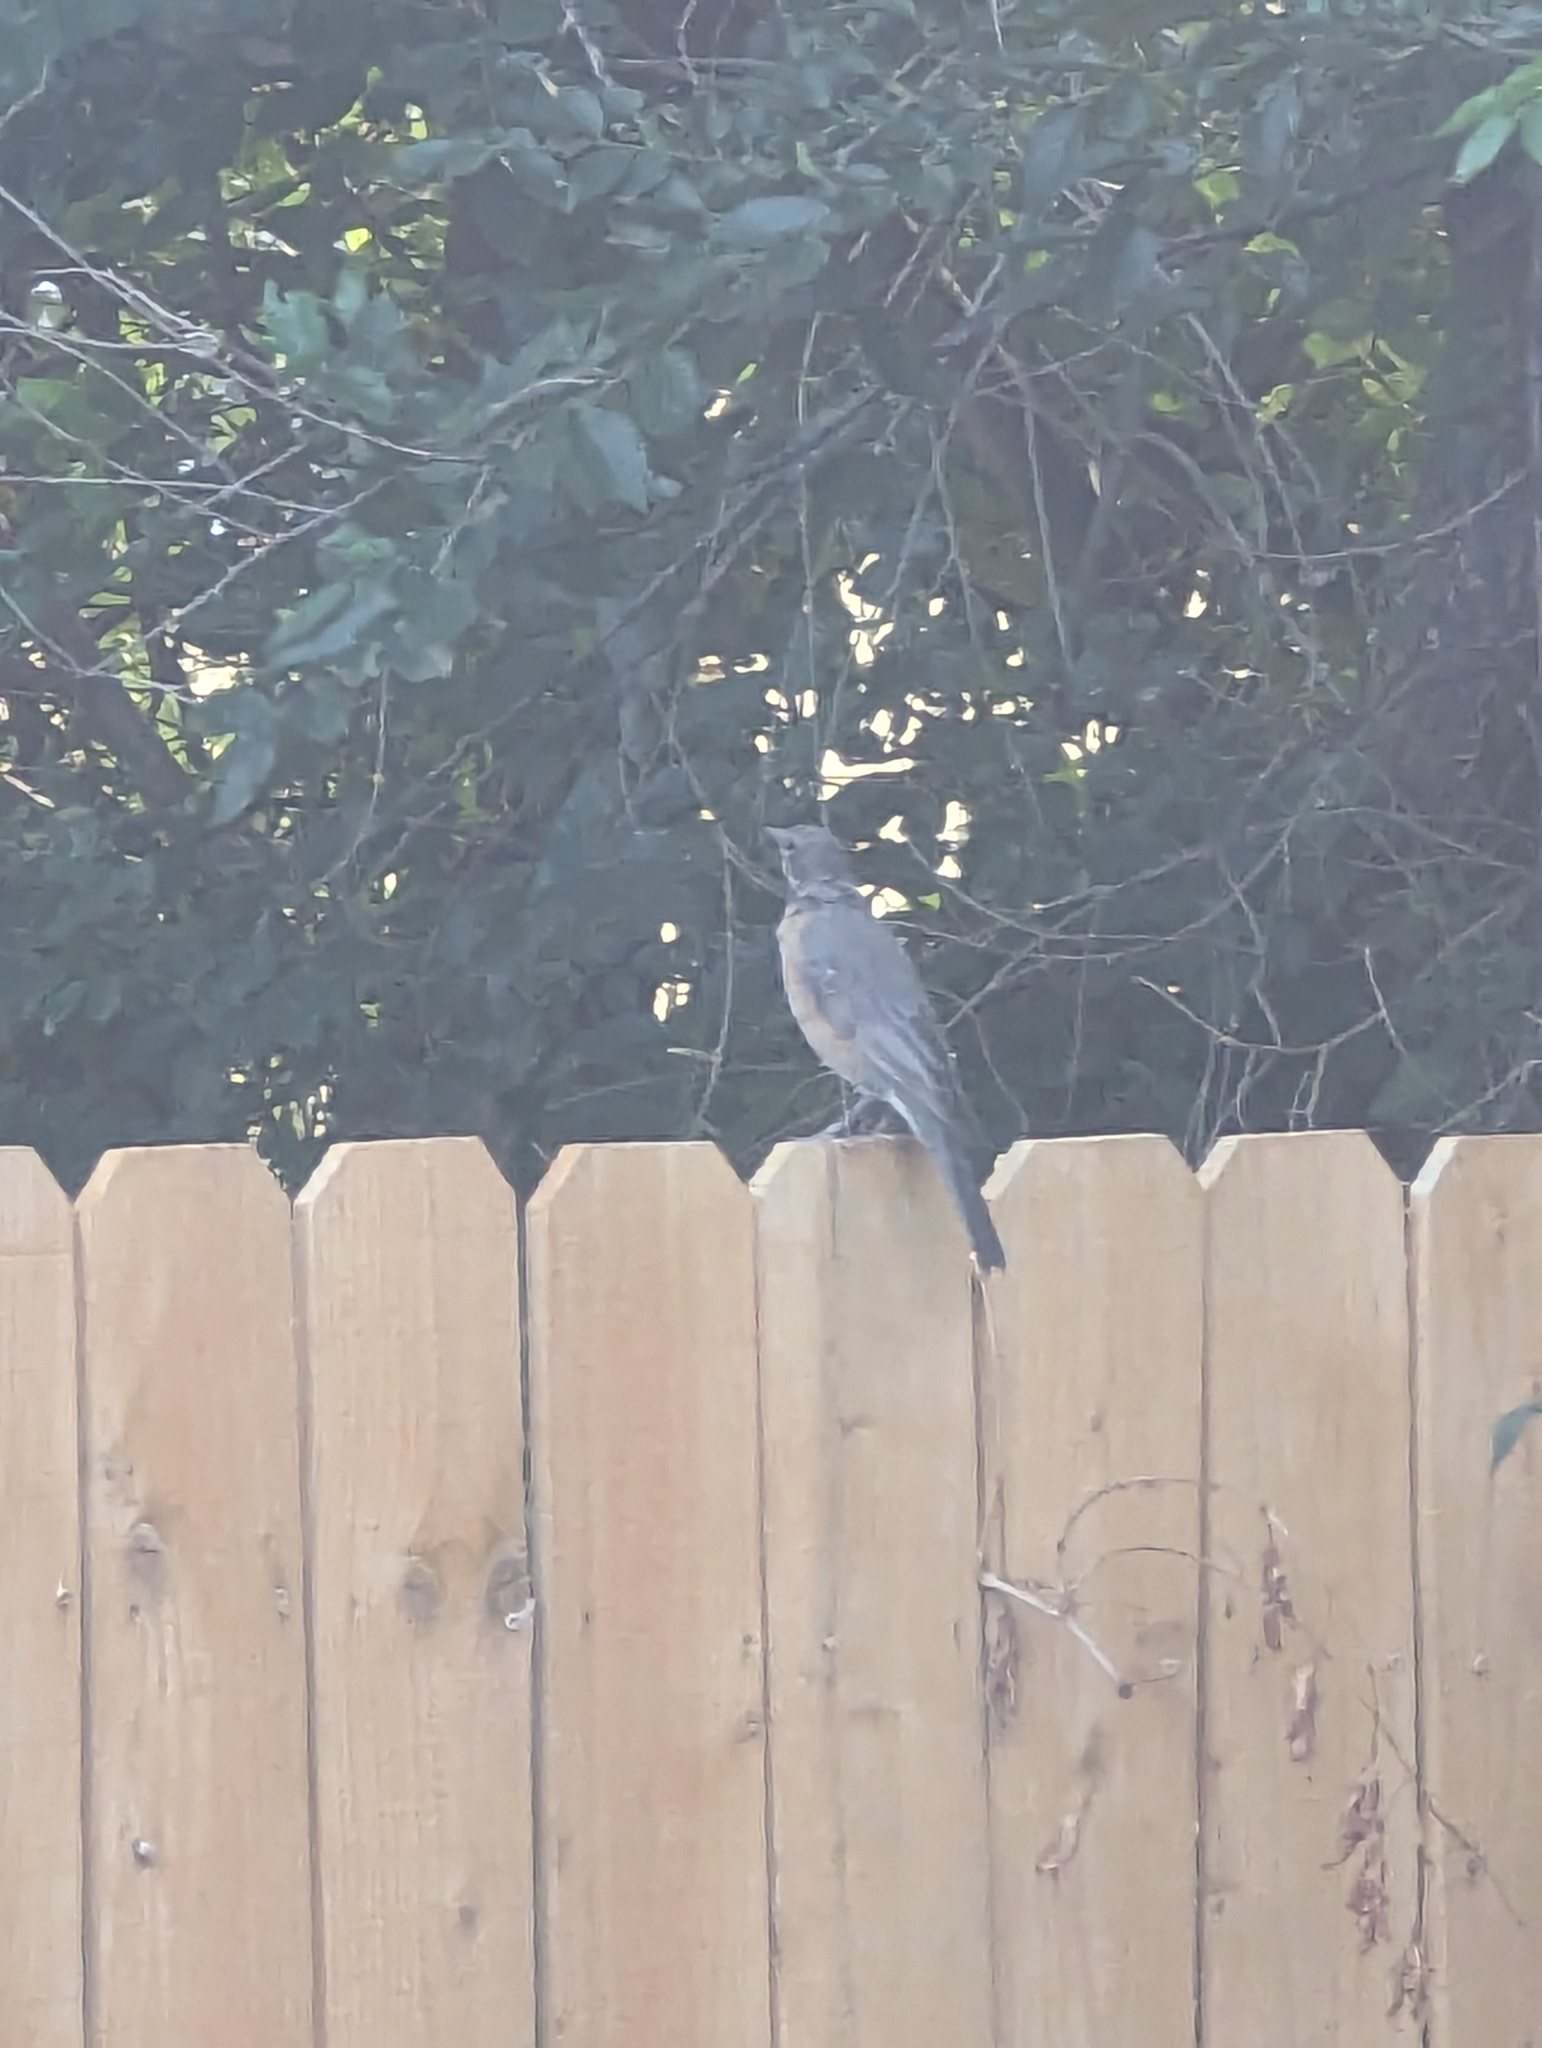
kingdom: Animalia
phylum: Chordata
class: Aves
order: Passeriformes
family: Turdidae
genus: Turdus
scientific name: Turdus migratorius
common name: American robin
